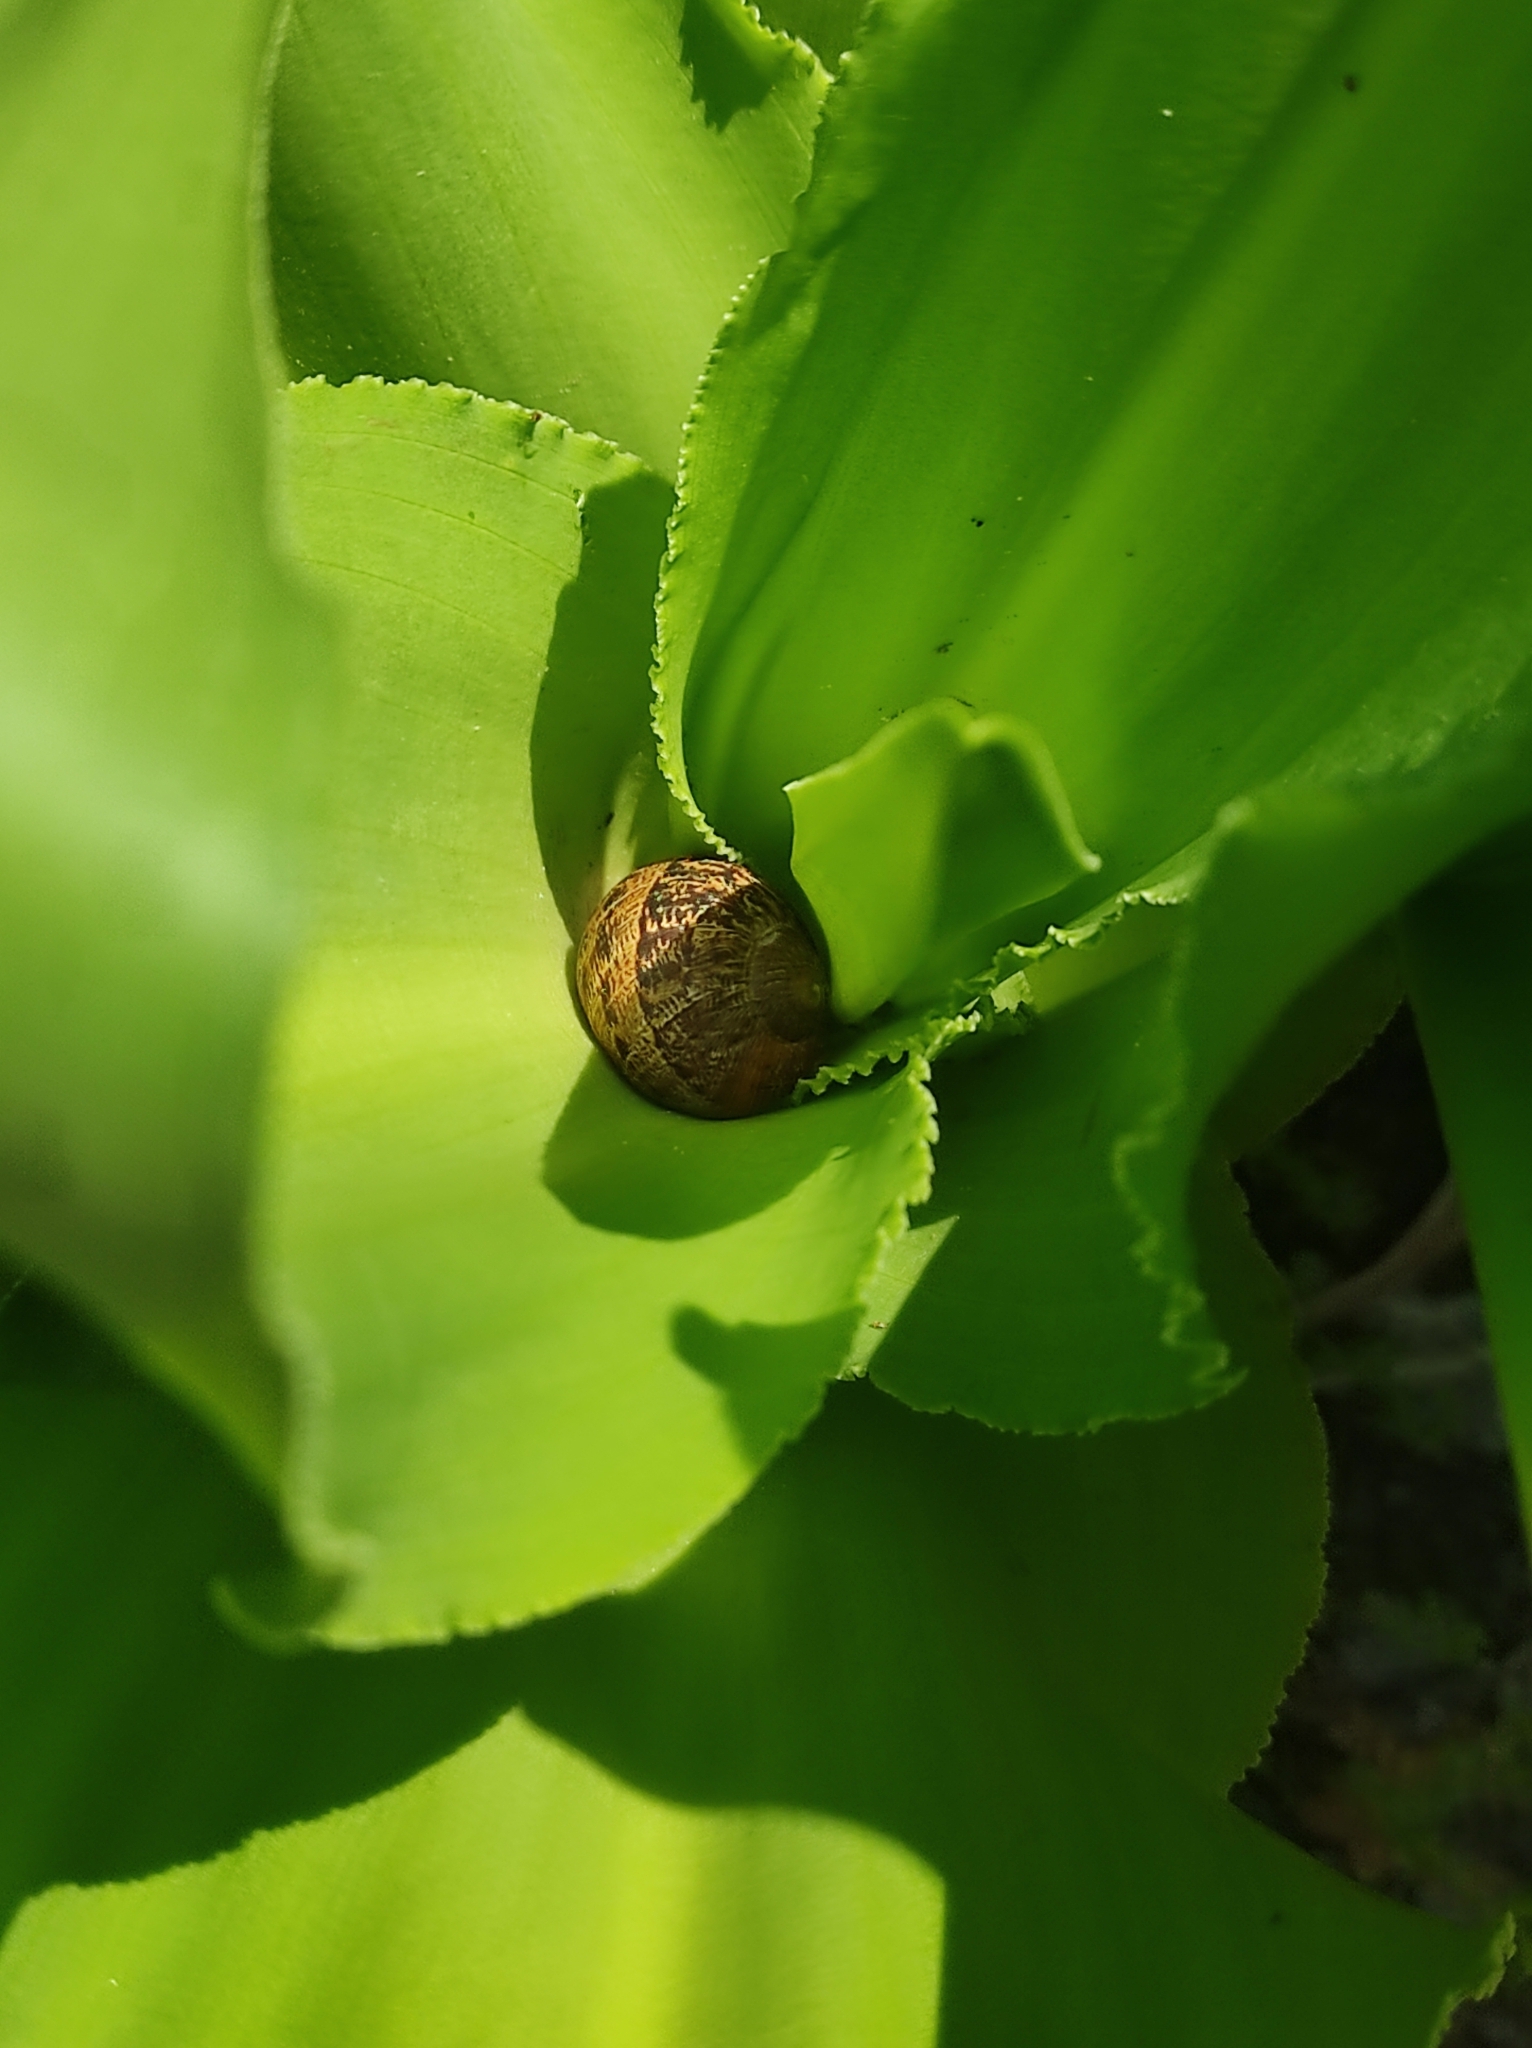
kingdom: Animalia
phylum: Mollusca
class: Gastropoda
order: Stylommatophora
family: Helicidae
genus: Cornu
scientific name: Cornu aspersum
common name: Brown garden snail
